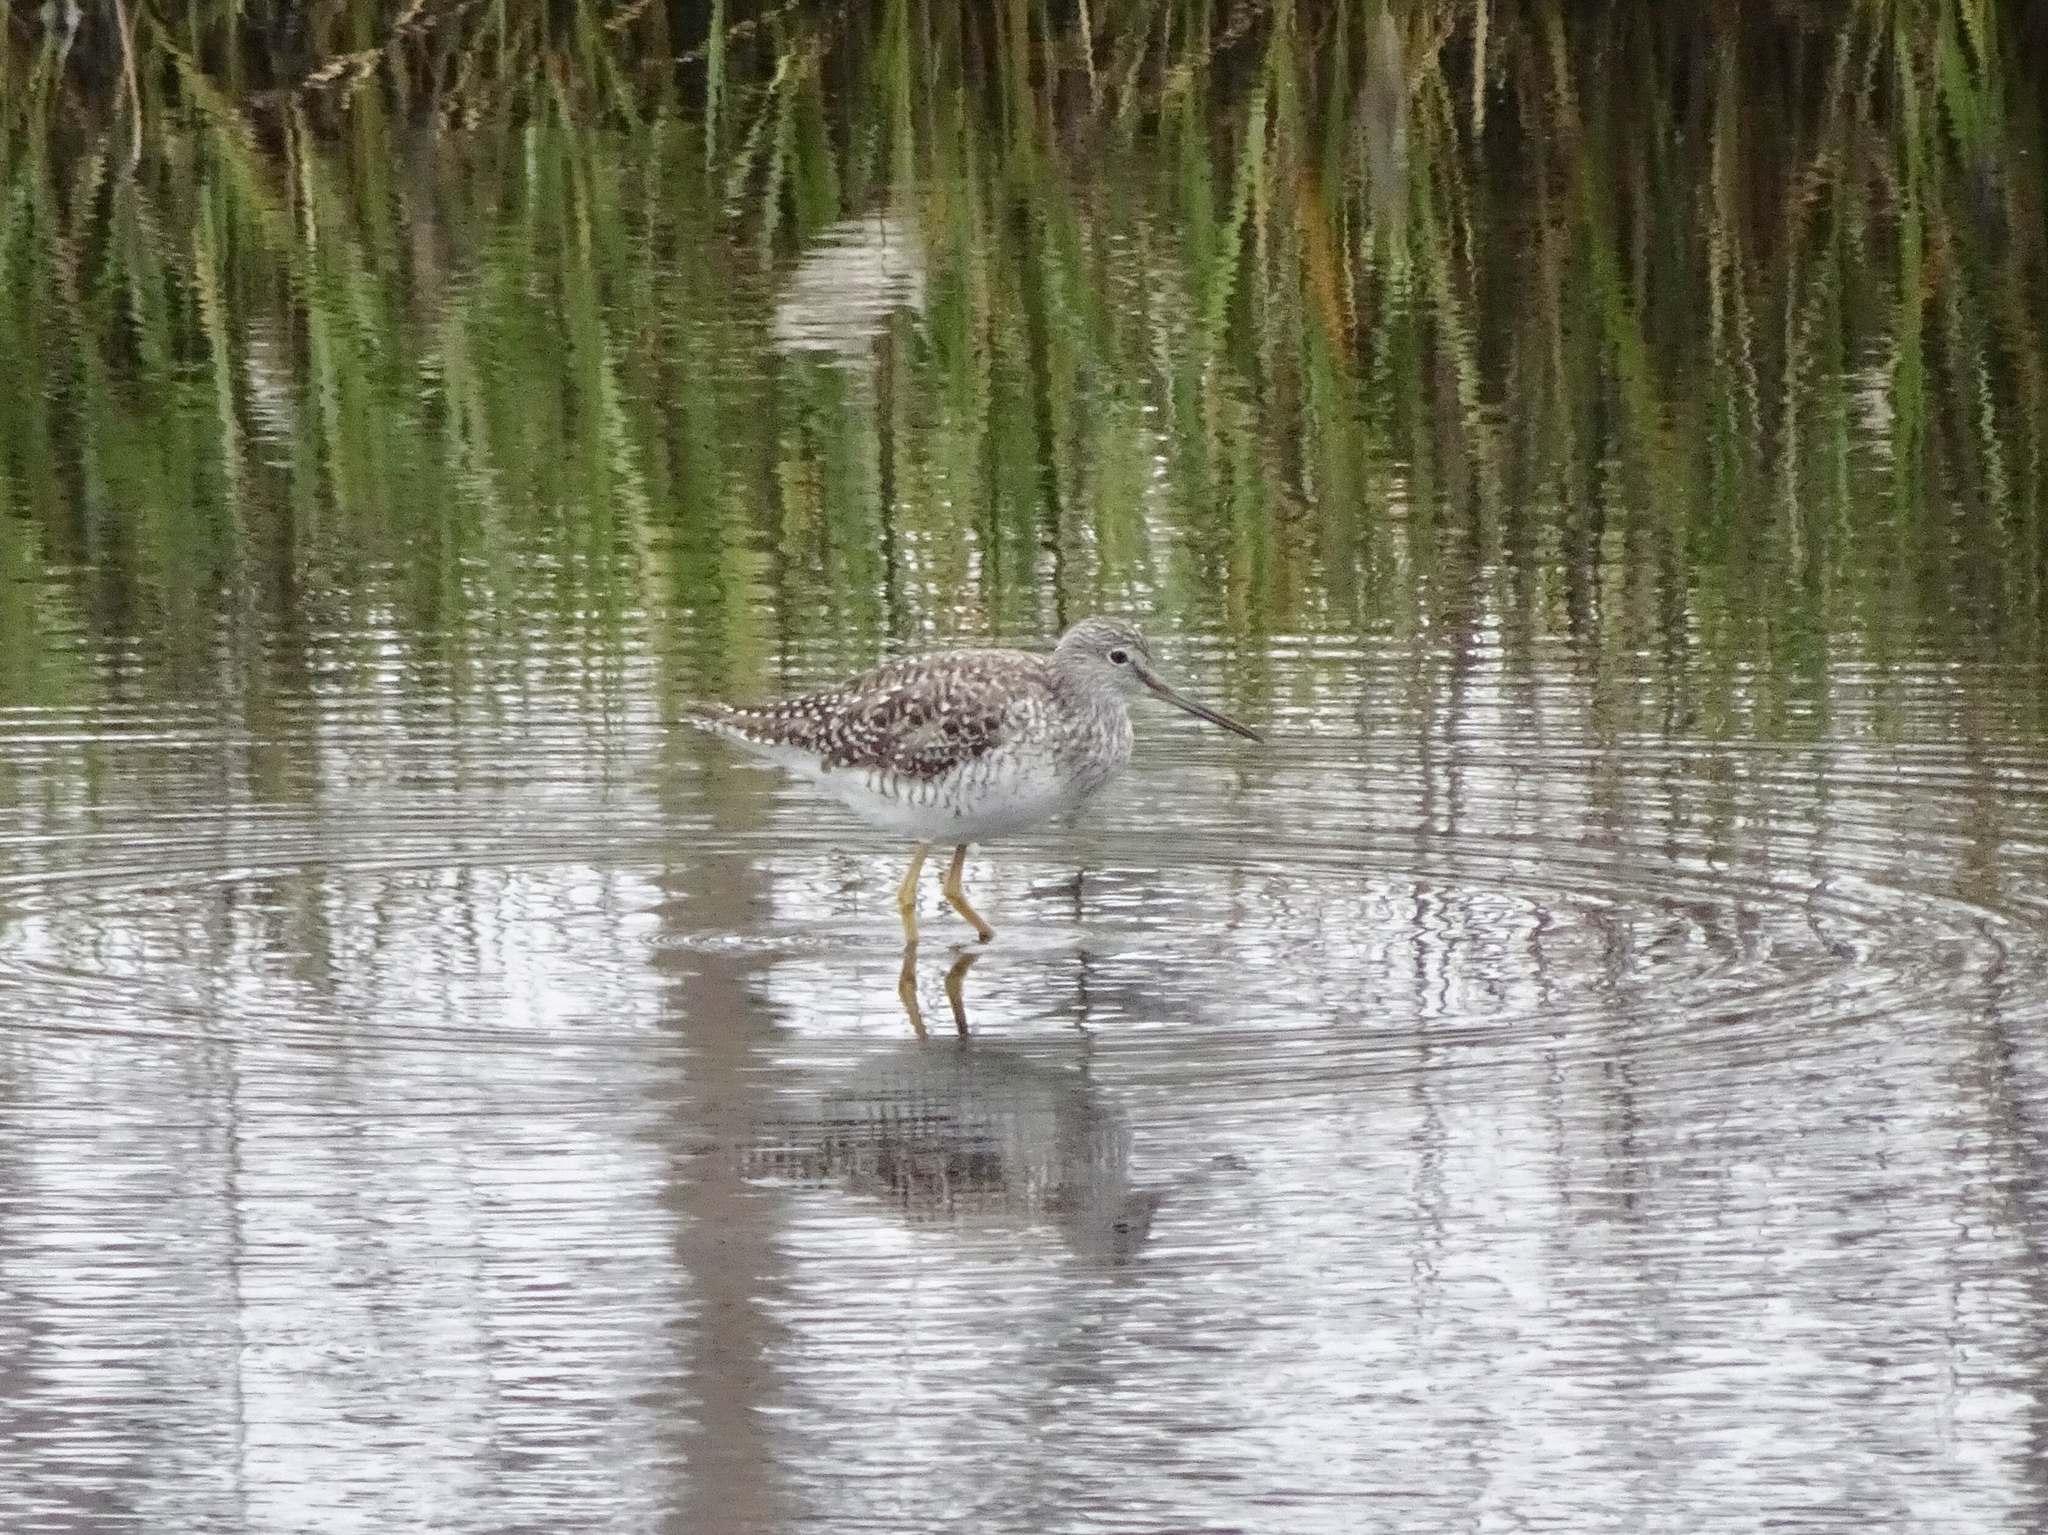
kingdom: Animalia
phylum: Chordata
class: Aves
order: Charadriiformes
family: Scolopacidae
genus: Tringa
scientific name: Tringa melanoleuca
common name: Greater yellowlegs
